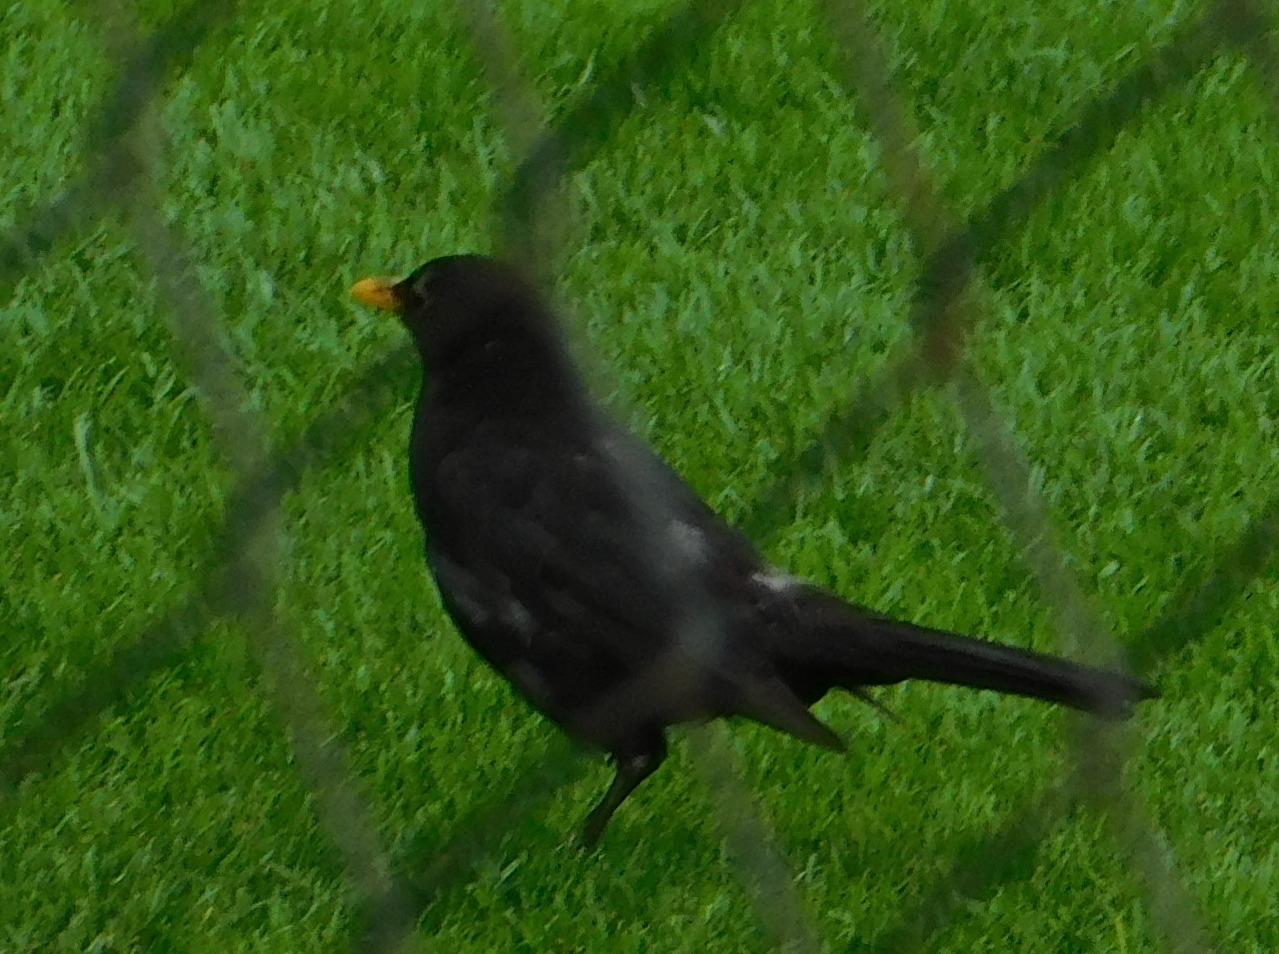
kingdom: Animalia
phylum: Chordata
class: Aves
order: Passeriformes
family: Turdidae
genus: Turdus
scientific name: Turdus merula
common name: Common blackbird
